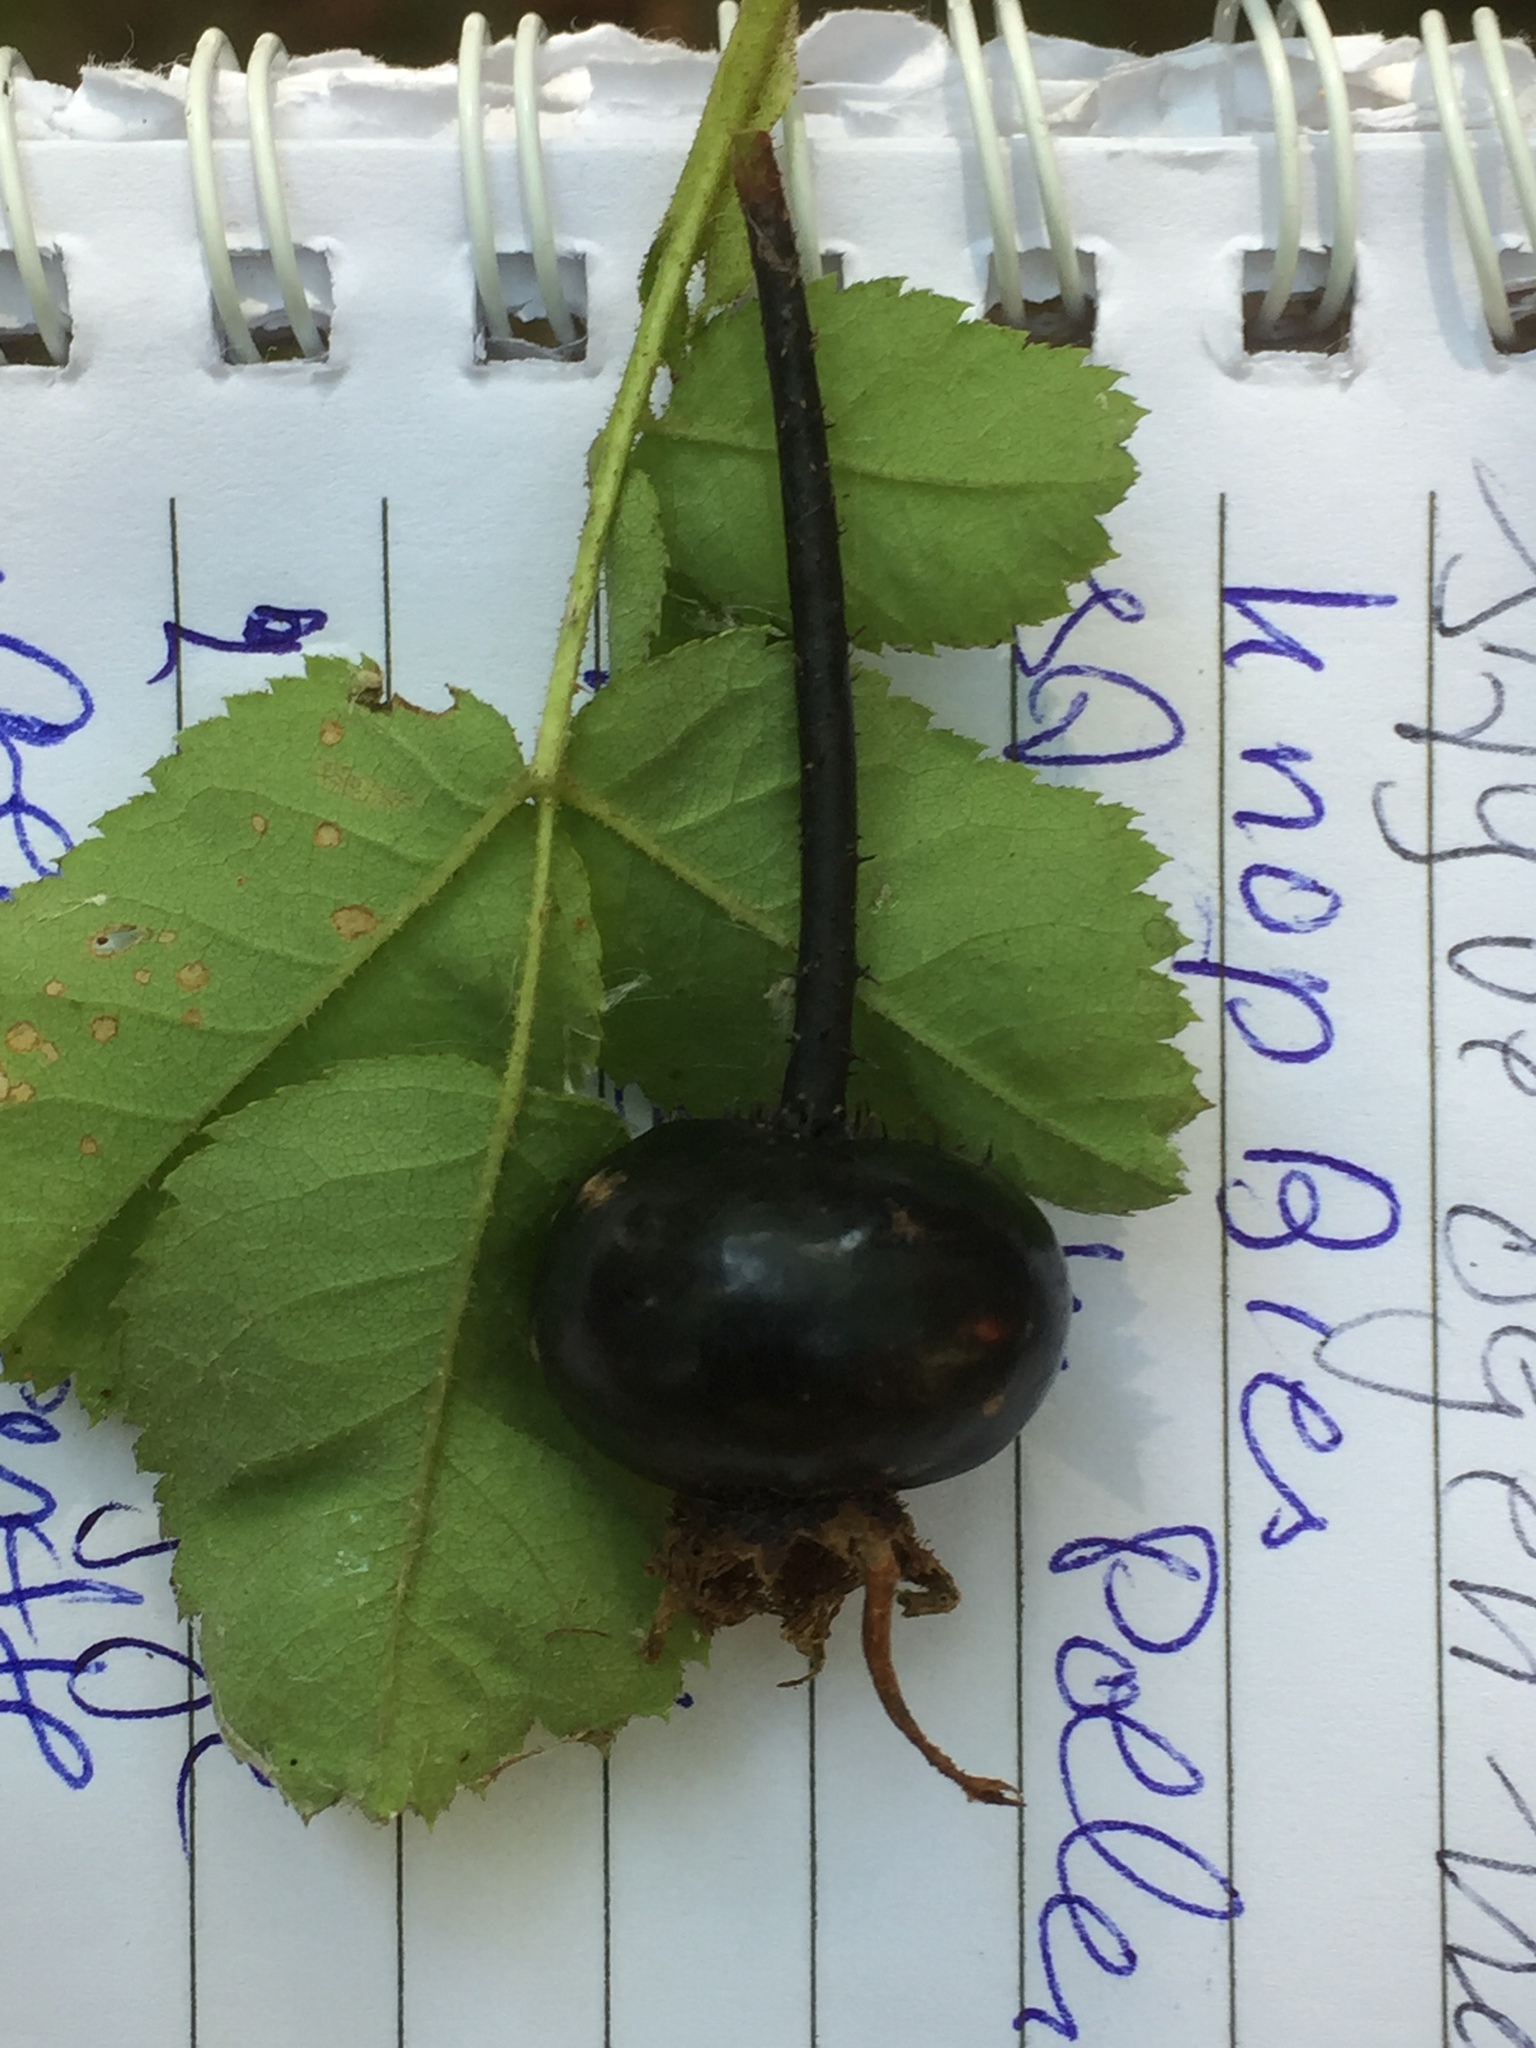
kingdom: Plantae
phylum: Tracheophyta
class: Magnoliopsida
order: Rosales
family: Rosaceae
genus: Rosa
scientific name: Rosa spinosissima
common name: Burnet rose
